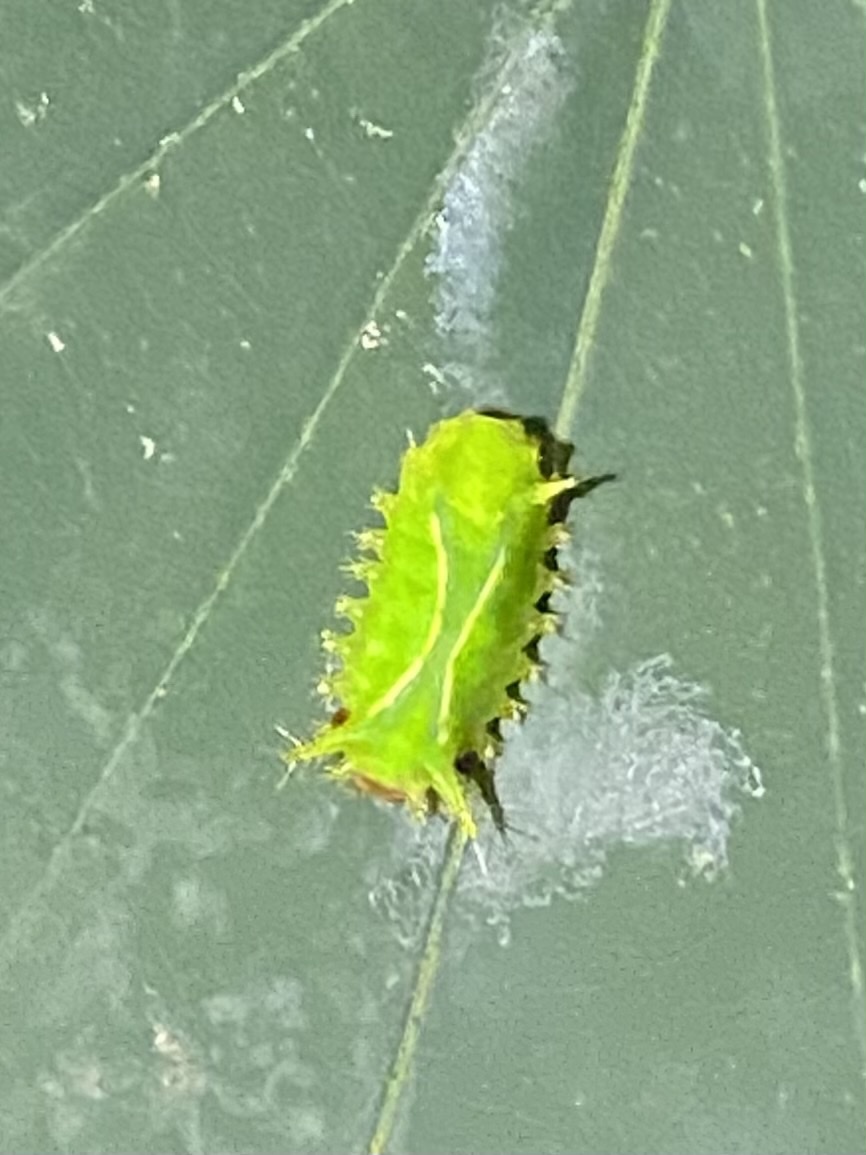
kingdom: Animalia
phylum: Arthropoda
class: Insecta
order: Lepidoptera
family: Limacodidae
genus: Parasa
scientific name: Parasa wellesca
